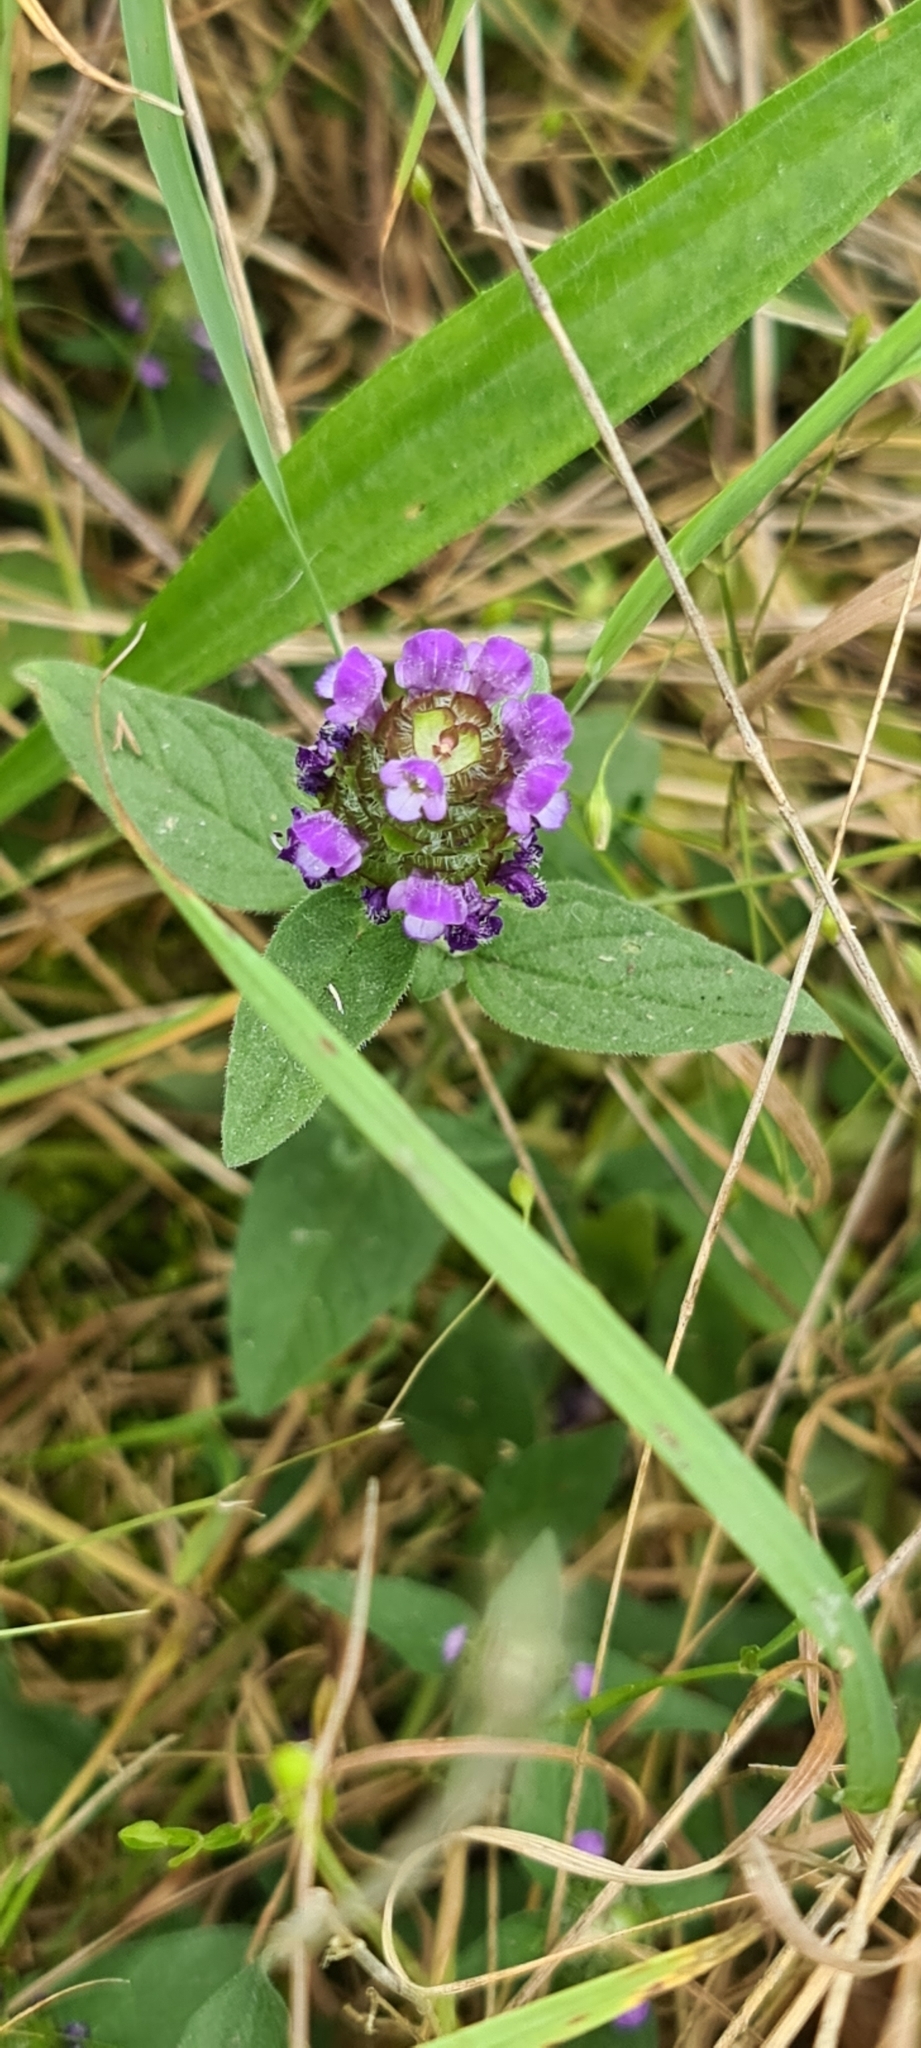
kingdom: Plantae
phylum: Tracheophyta
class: Magnoliopsida
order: Lamiales
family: Lamiaceae
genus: Prunella
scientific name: Prunella vulgaris
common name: Heal-all
